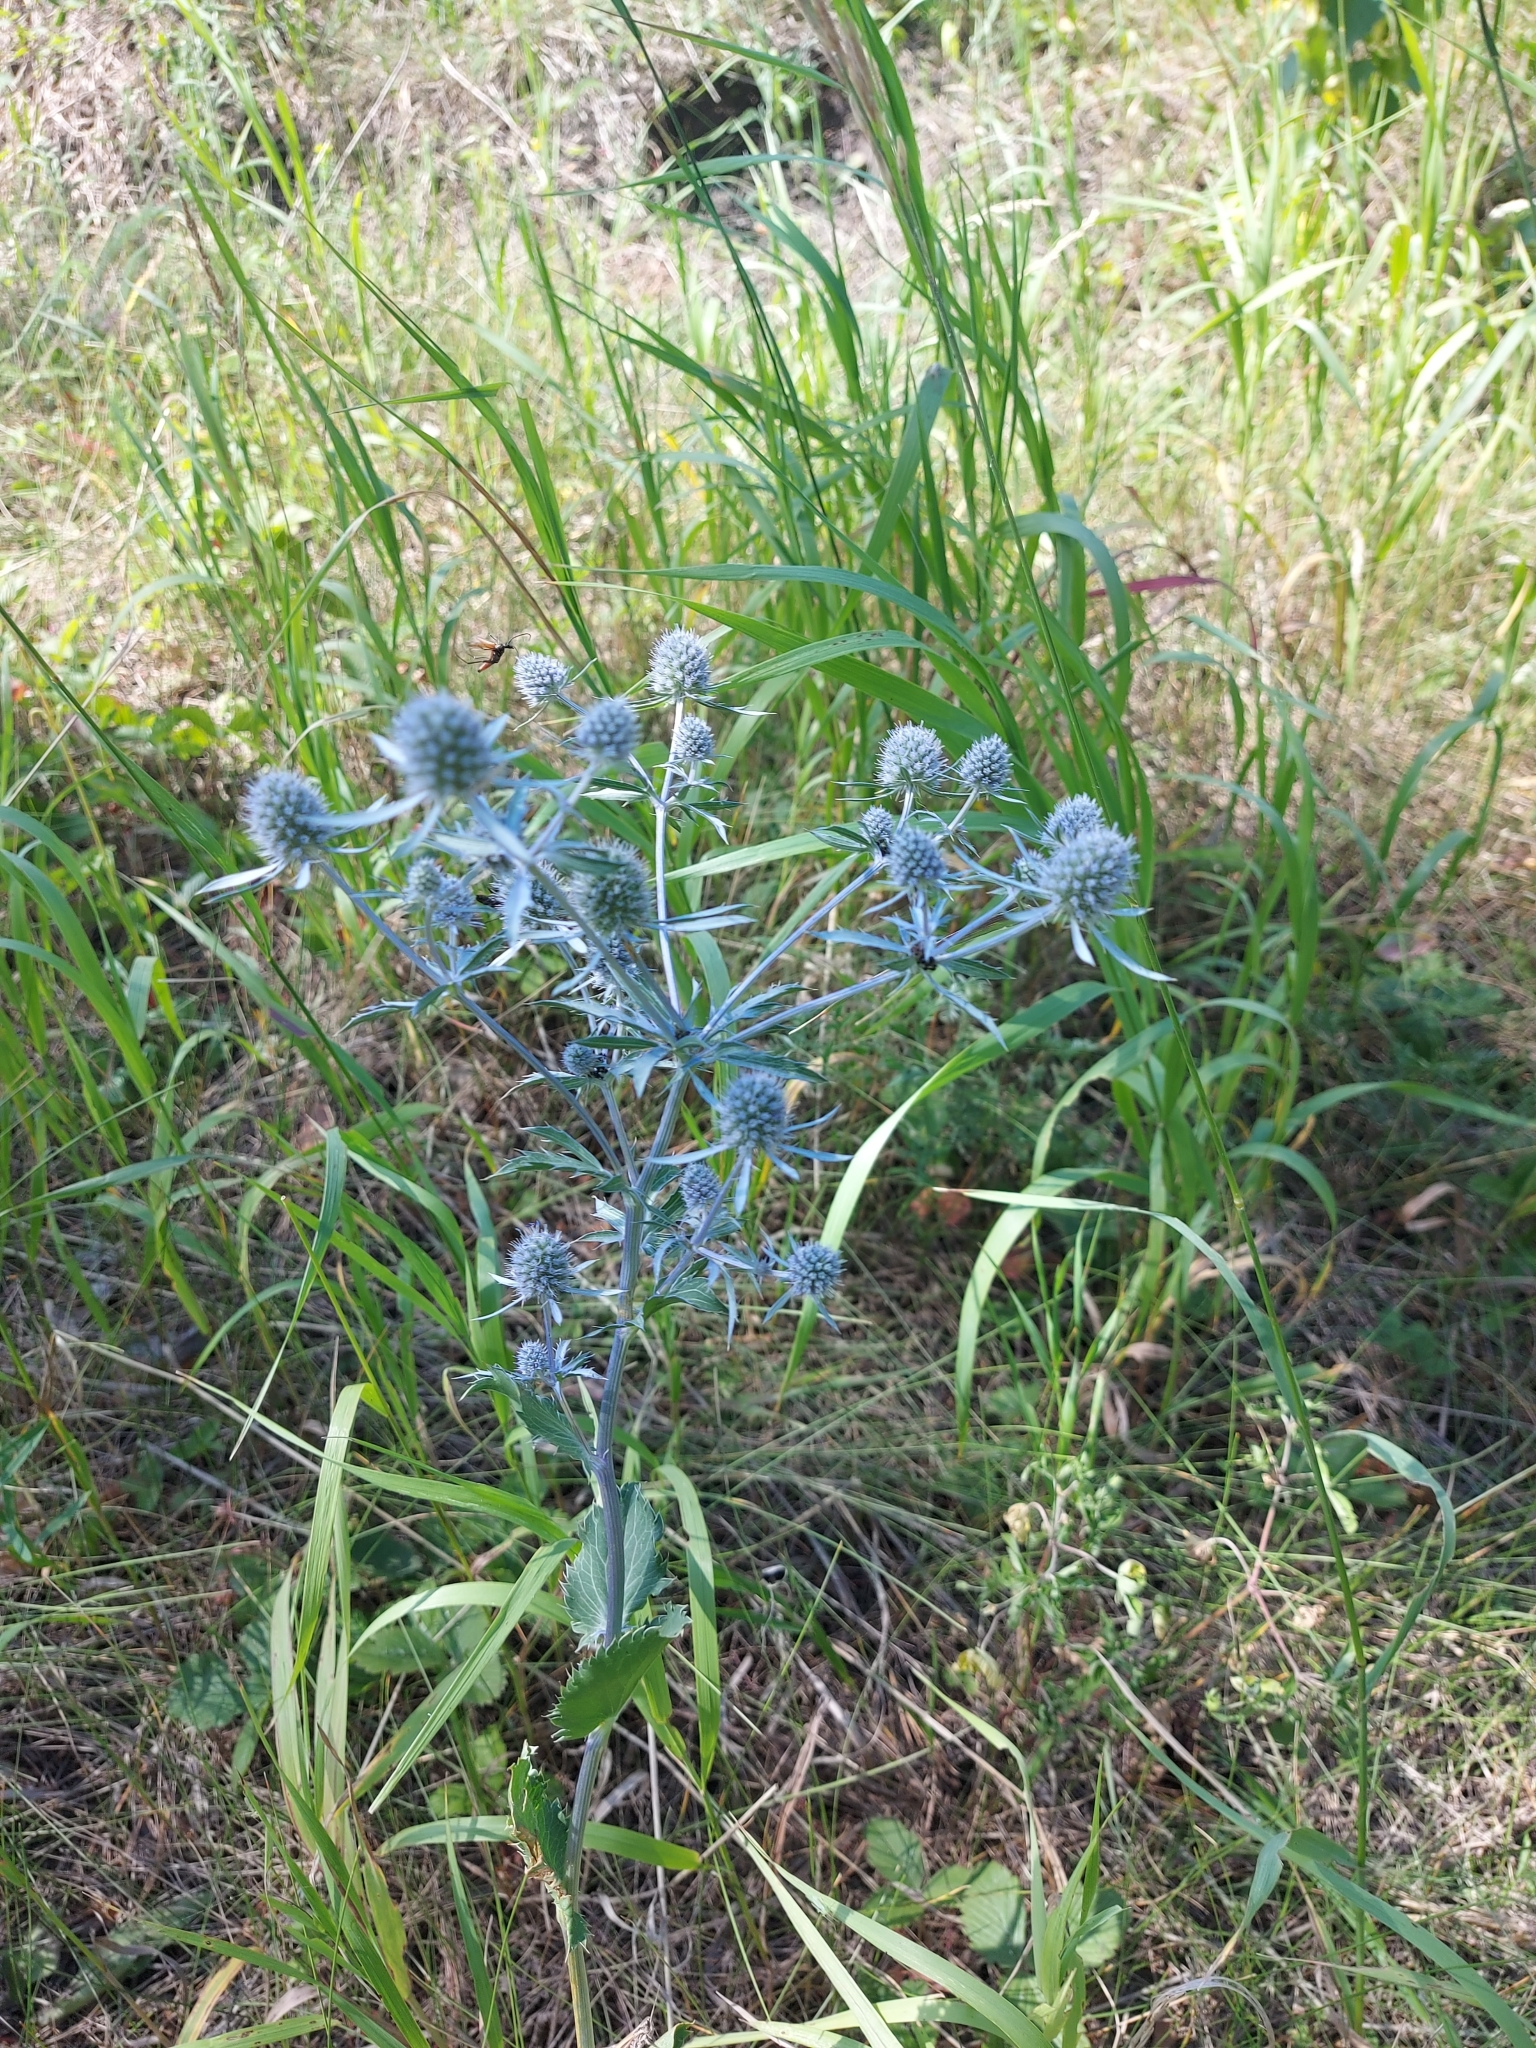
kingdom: Plantae
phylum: Tracheophyta
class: Magnoliopsida
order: Apiales
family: Apiaceae
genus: Eryngium
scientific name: Eryngium planum
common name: Blue eryngo
